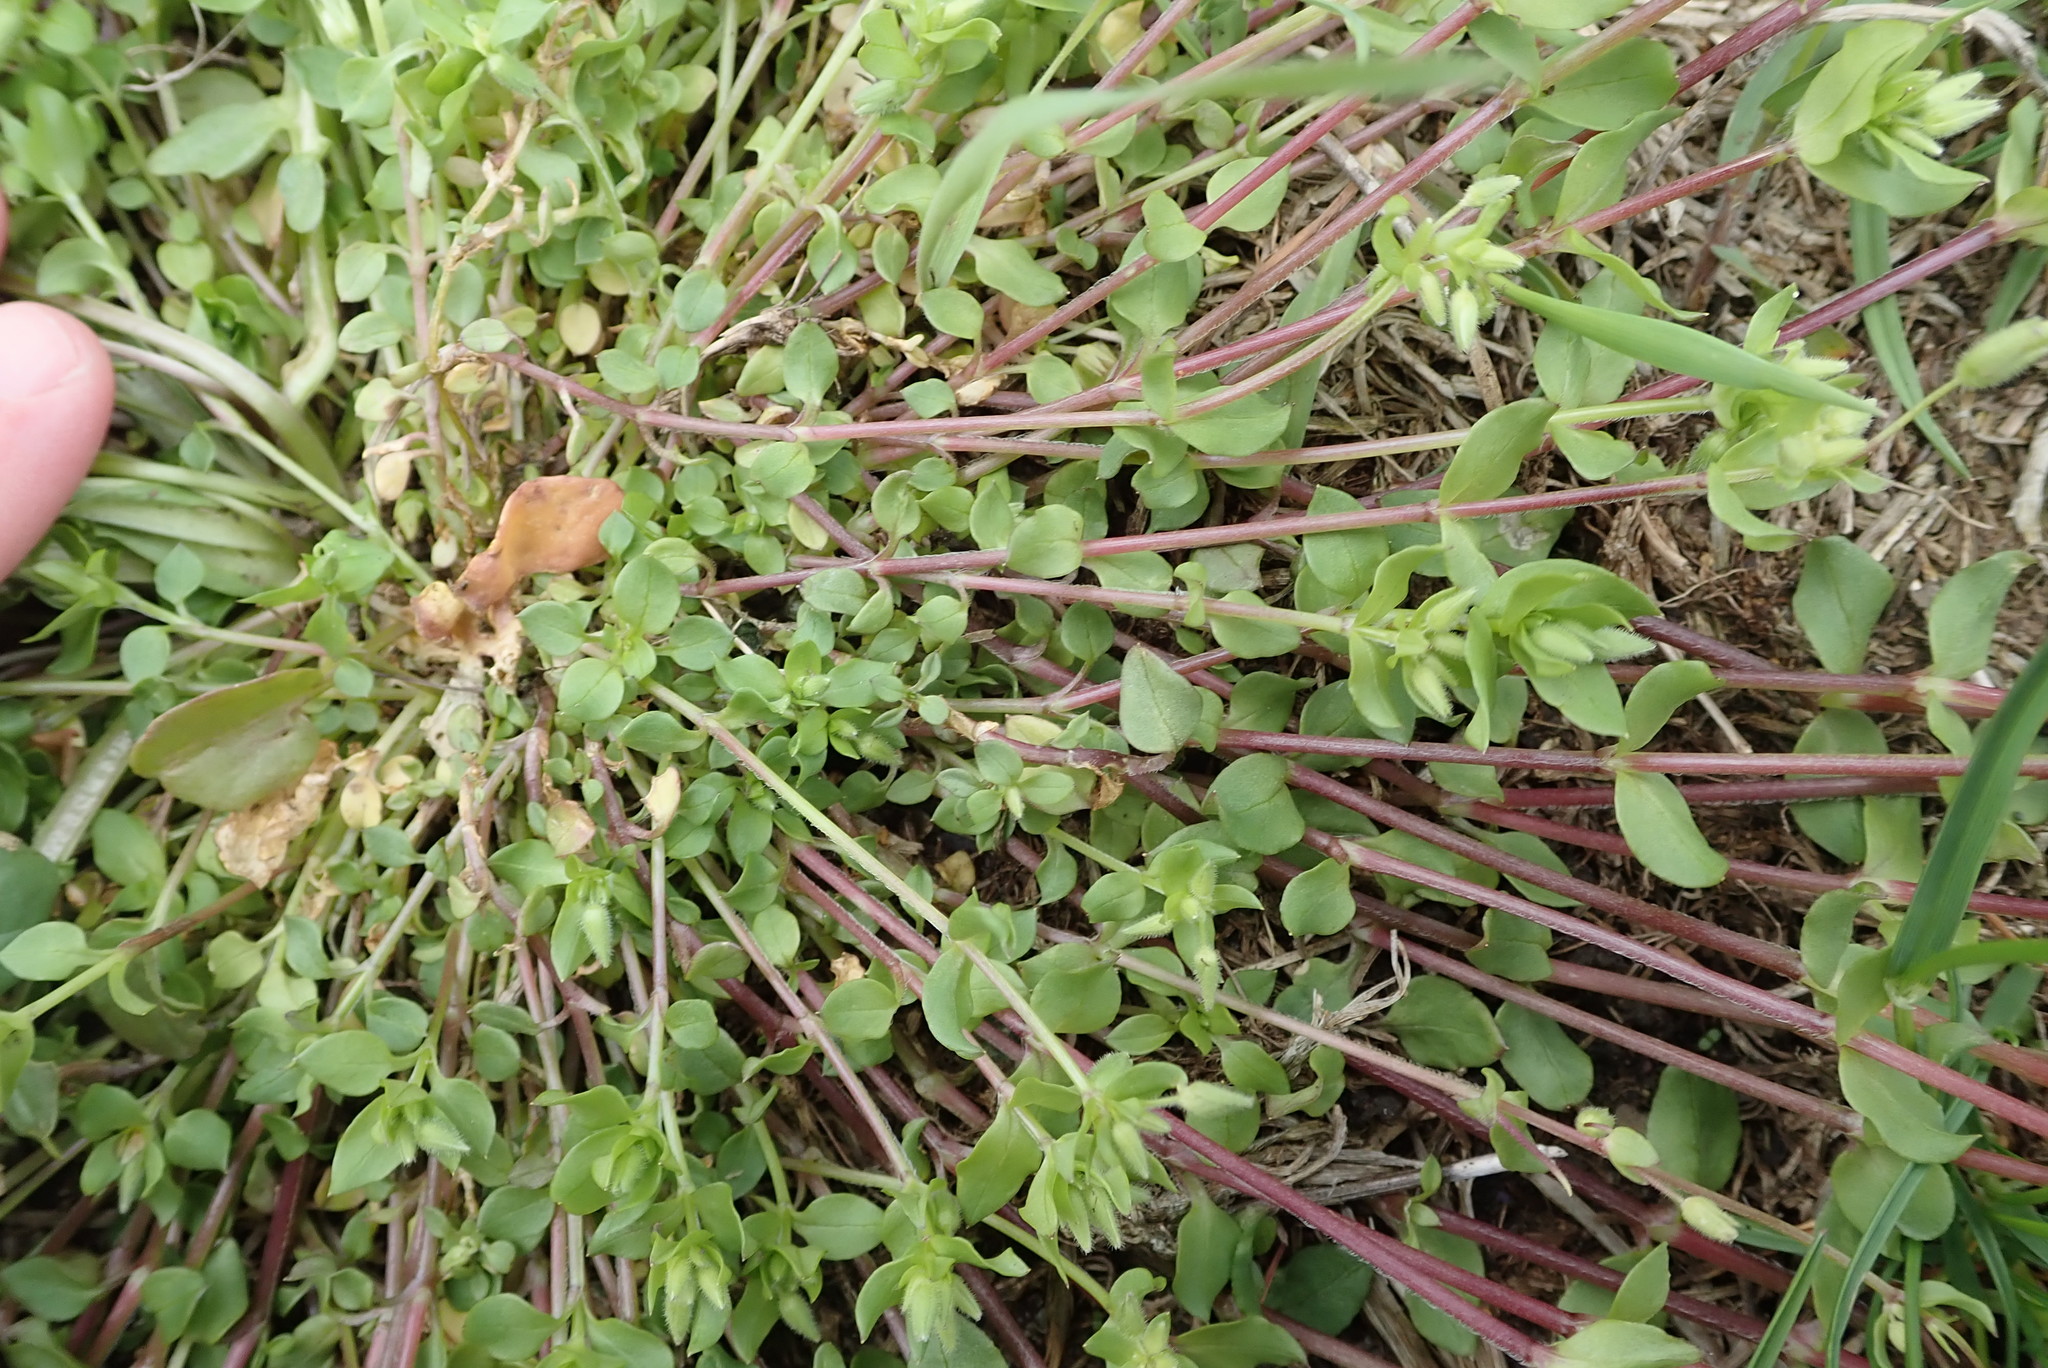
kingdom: Plantae
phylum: Tracheophyta
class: Magnoliopsida
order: Caryophyllales
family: Caryophyllaceae
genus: Stellaria
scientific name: Stellaria media
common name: Common chickweed
